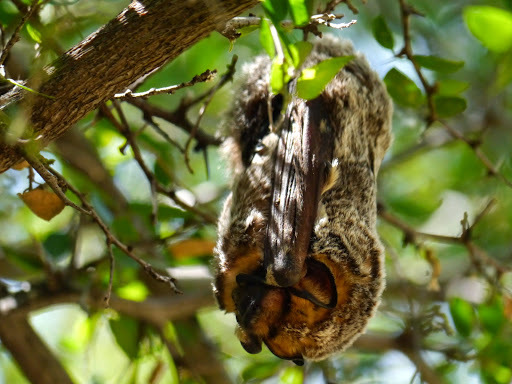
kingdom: Animalia
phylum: Chordata
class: Mammalia
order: Chiroptera
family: Vespertilionidae
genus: Aeorestes
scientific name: Aeorestes cinereus
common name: North american hoary bat
